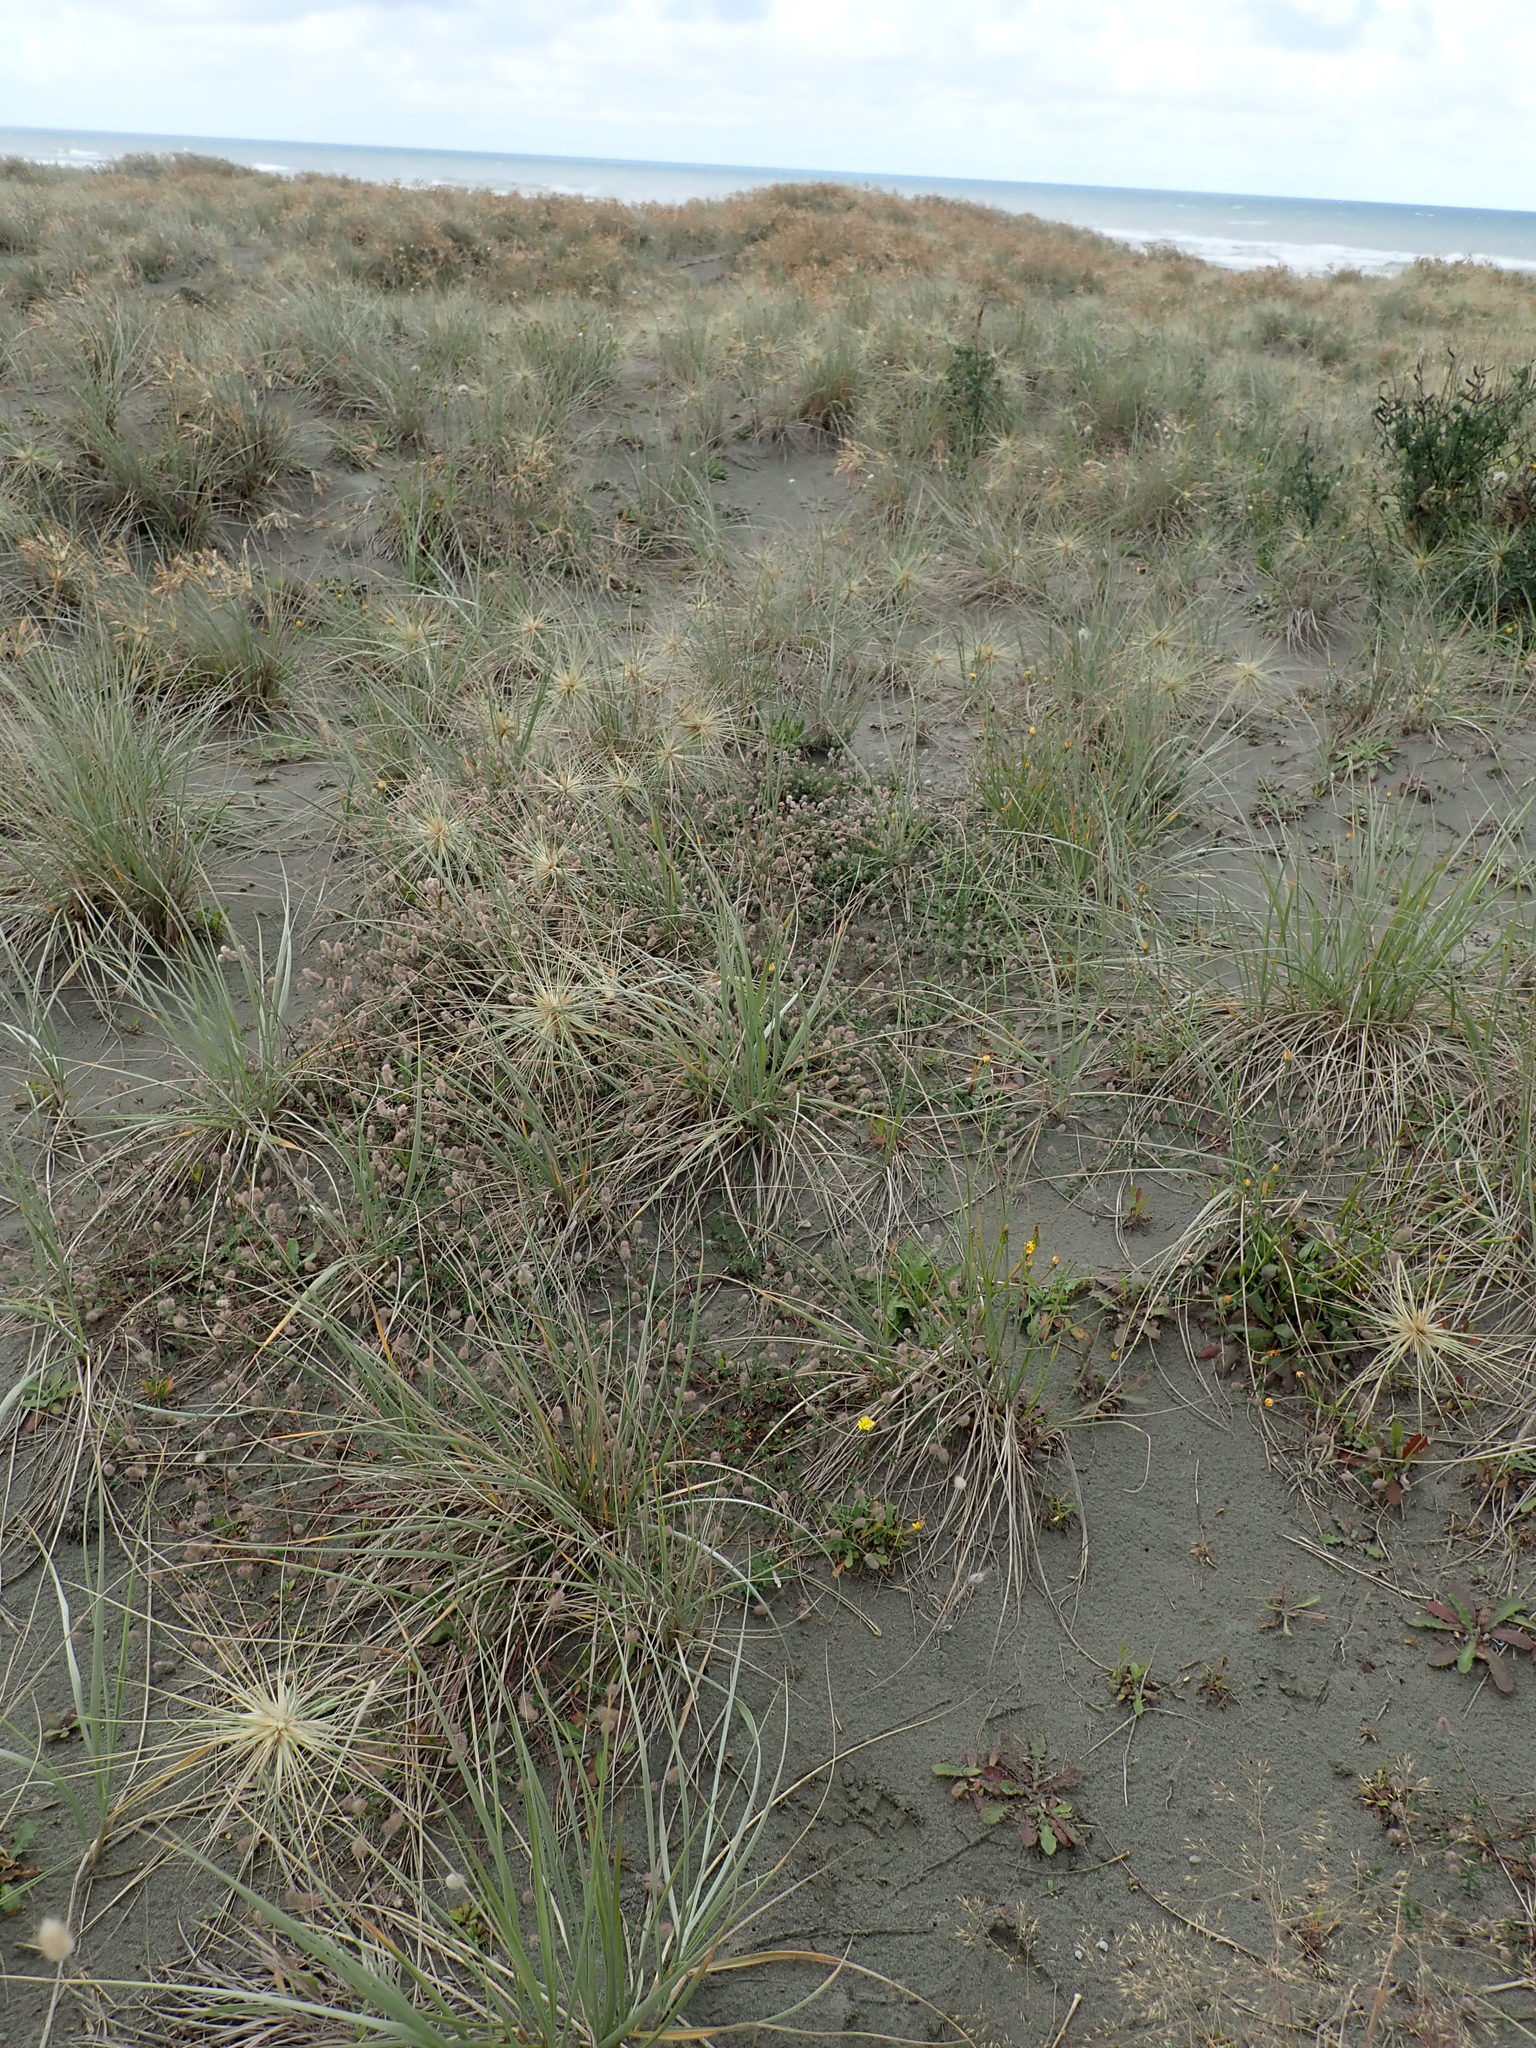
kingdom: Plantae
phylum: Tracheophyta
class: Magnoliopsida
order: Fabales
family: Fabaceae
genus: Trifolium
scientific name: Trifolium arvense
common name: Hare's-foot clover
